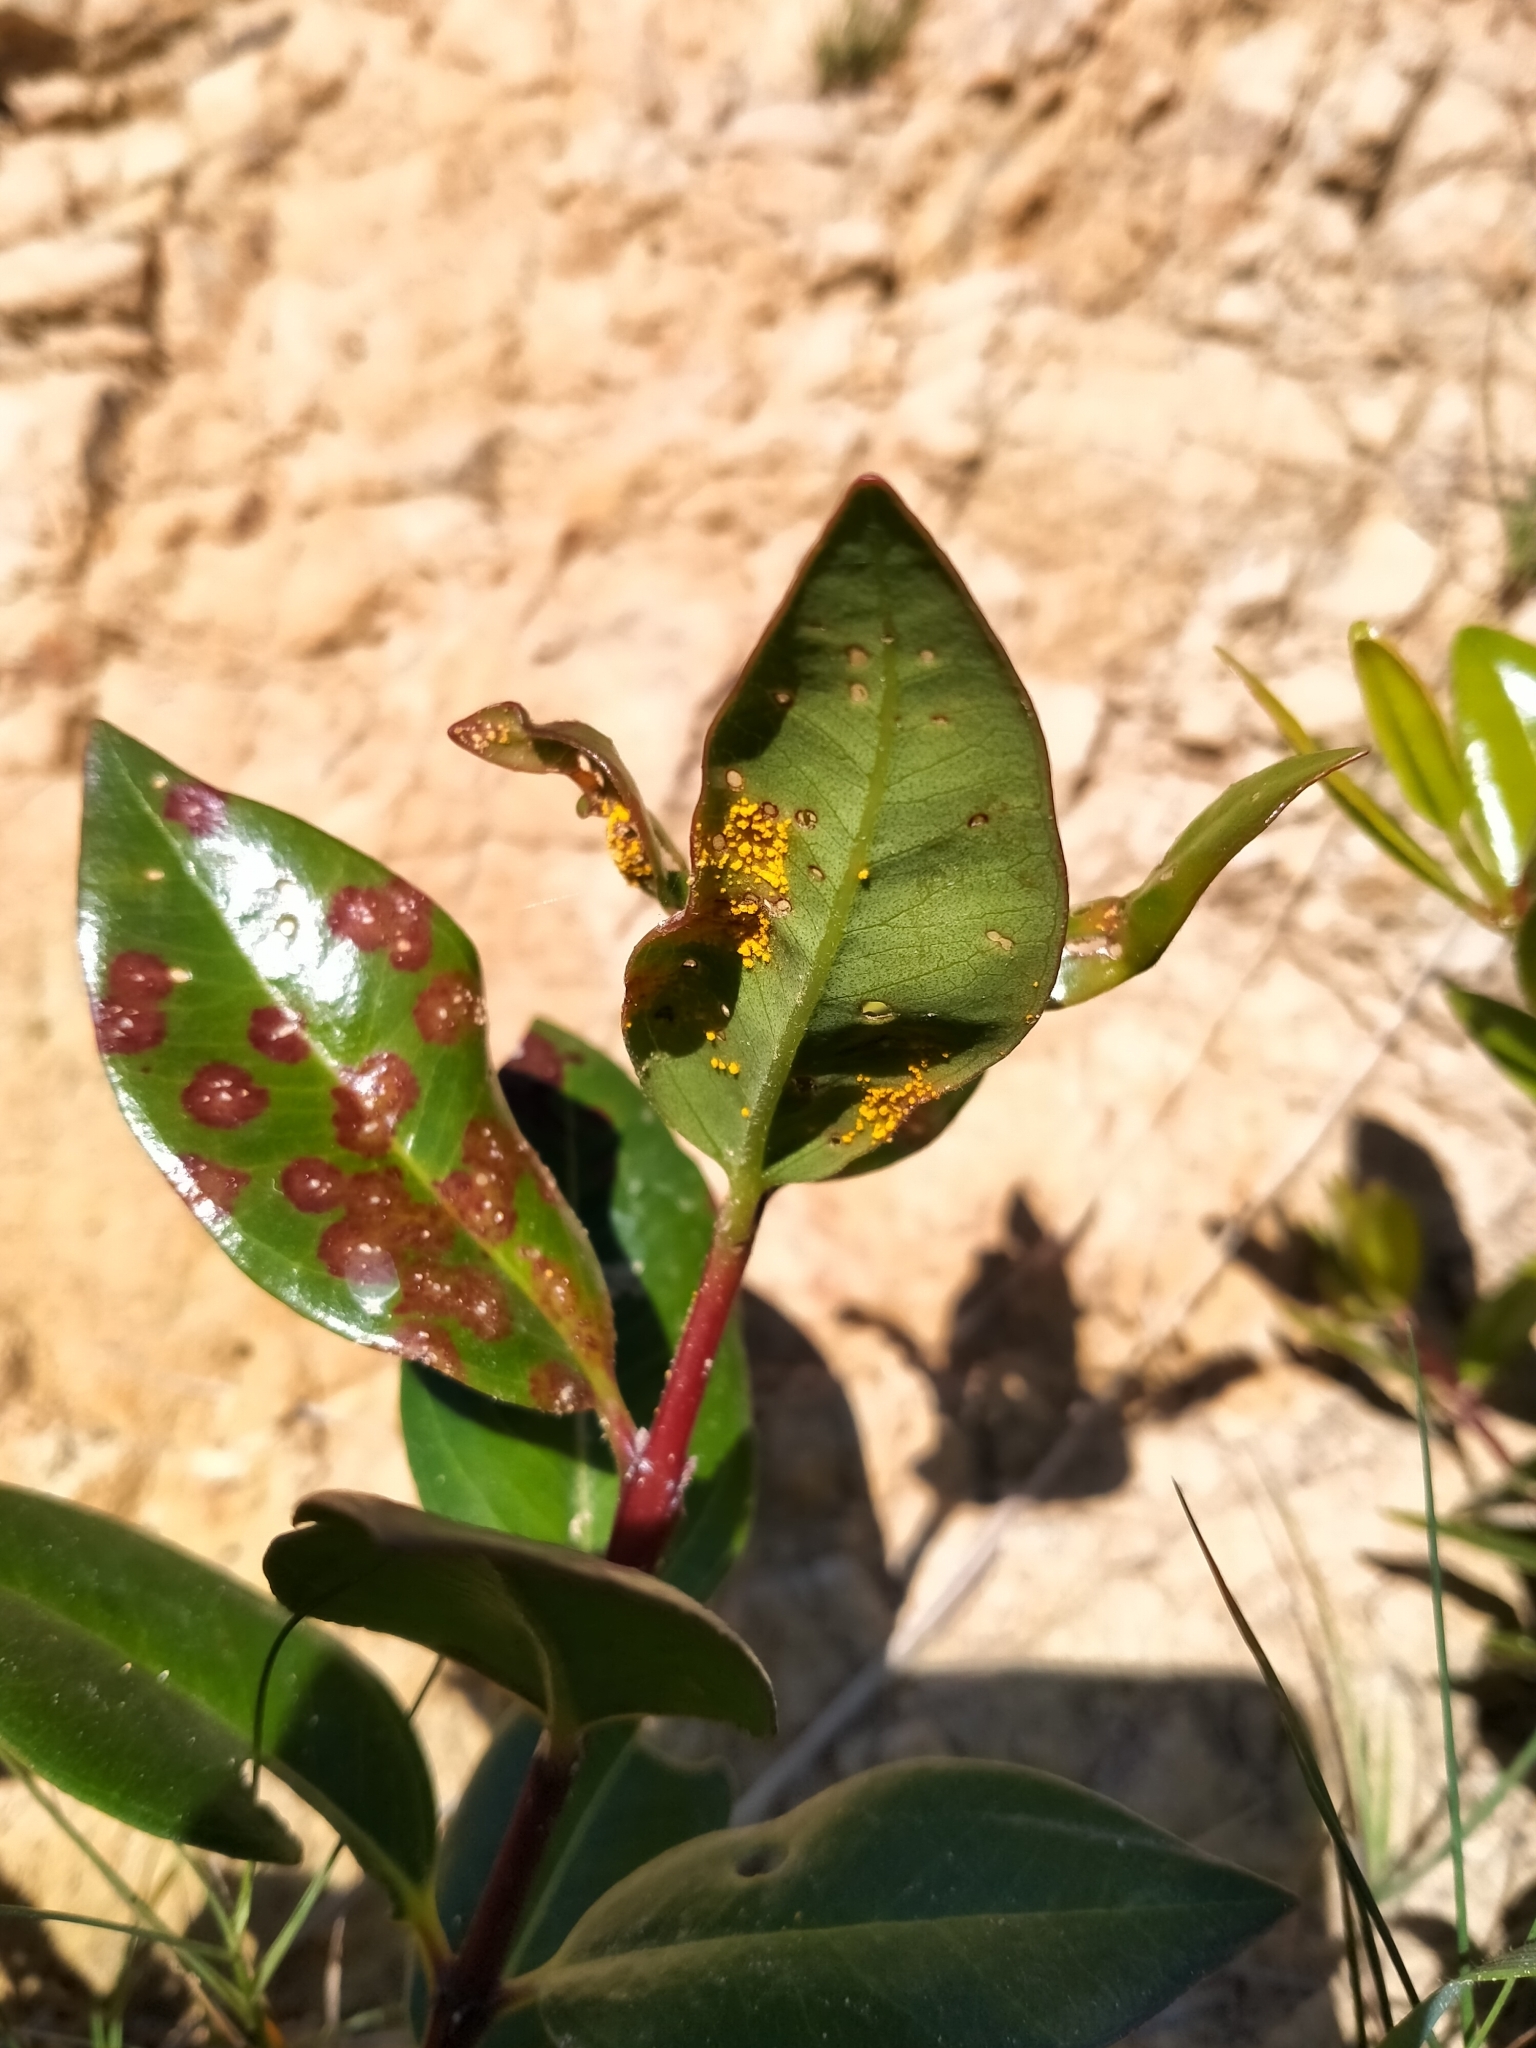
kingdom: Fungi
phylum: Basidiomycota
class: Pucciniomycetes
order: Pucciniales
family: Sphaerophragmiaceae
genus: Austropuccinia
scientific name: Austropuccinia psidii
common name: Myrtle rust
